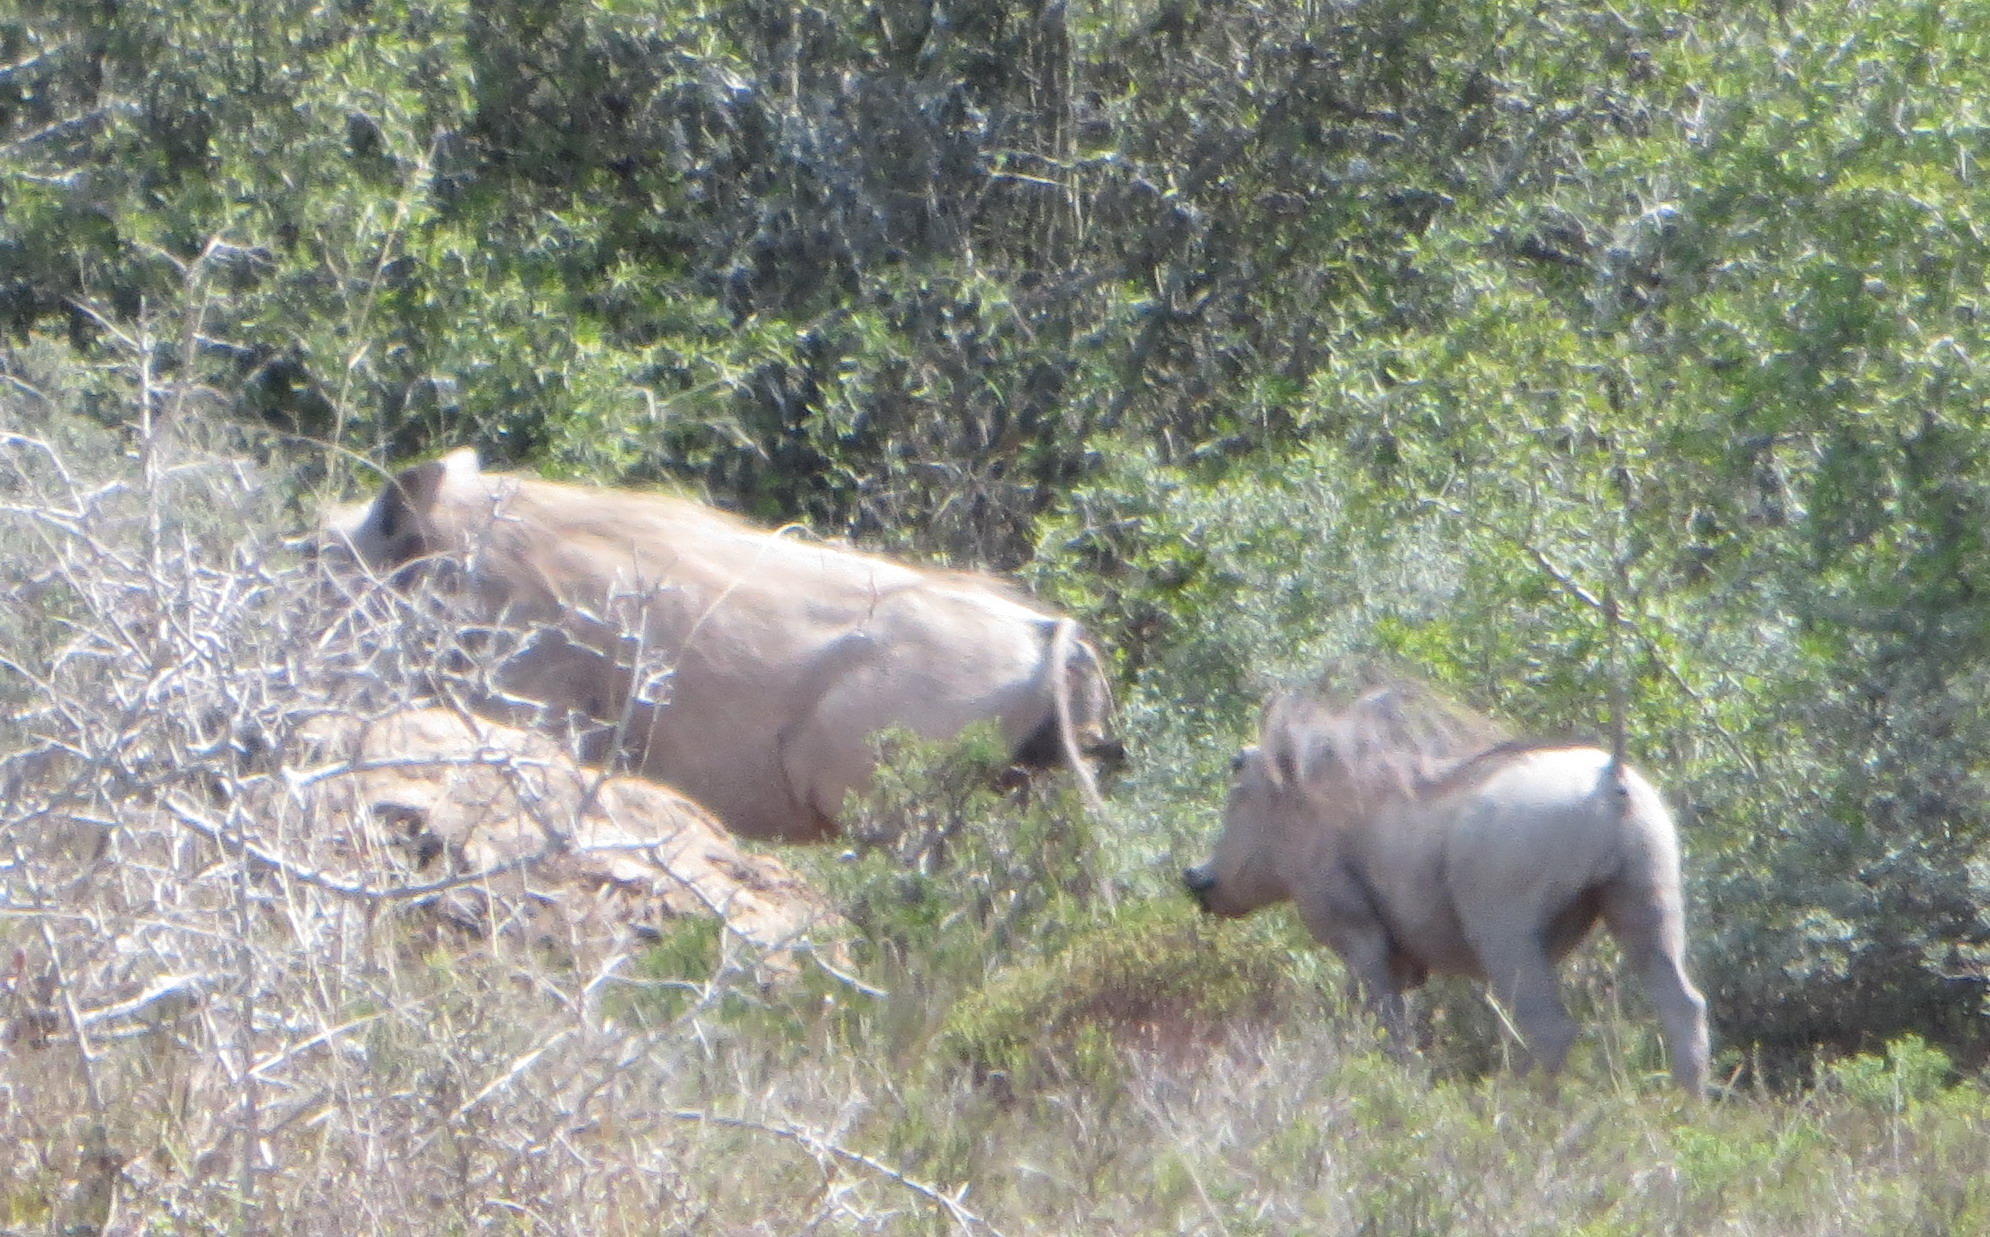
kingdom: Animalia
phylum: Chordata
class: Mammalia
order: Artiodactyla
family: Suidae
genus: Phacochoerus
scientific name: Phacochoerus africanus
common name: Common warthog
